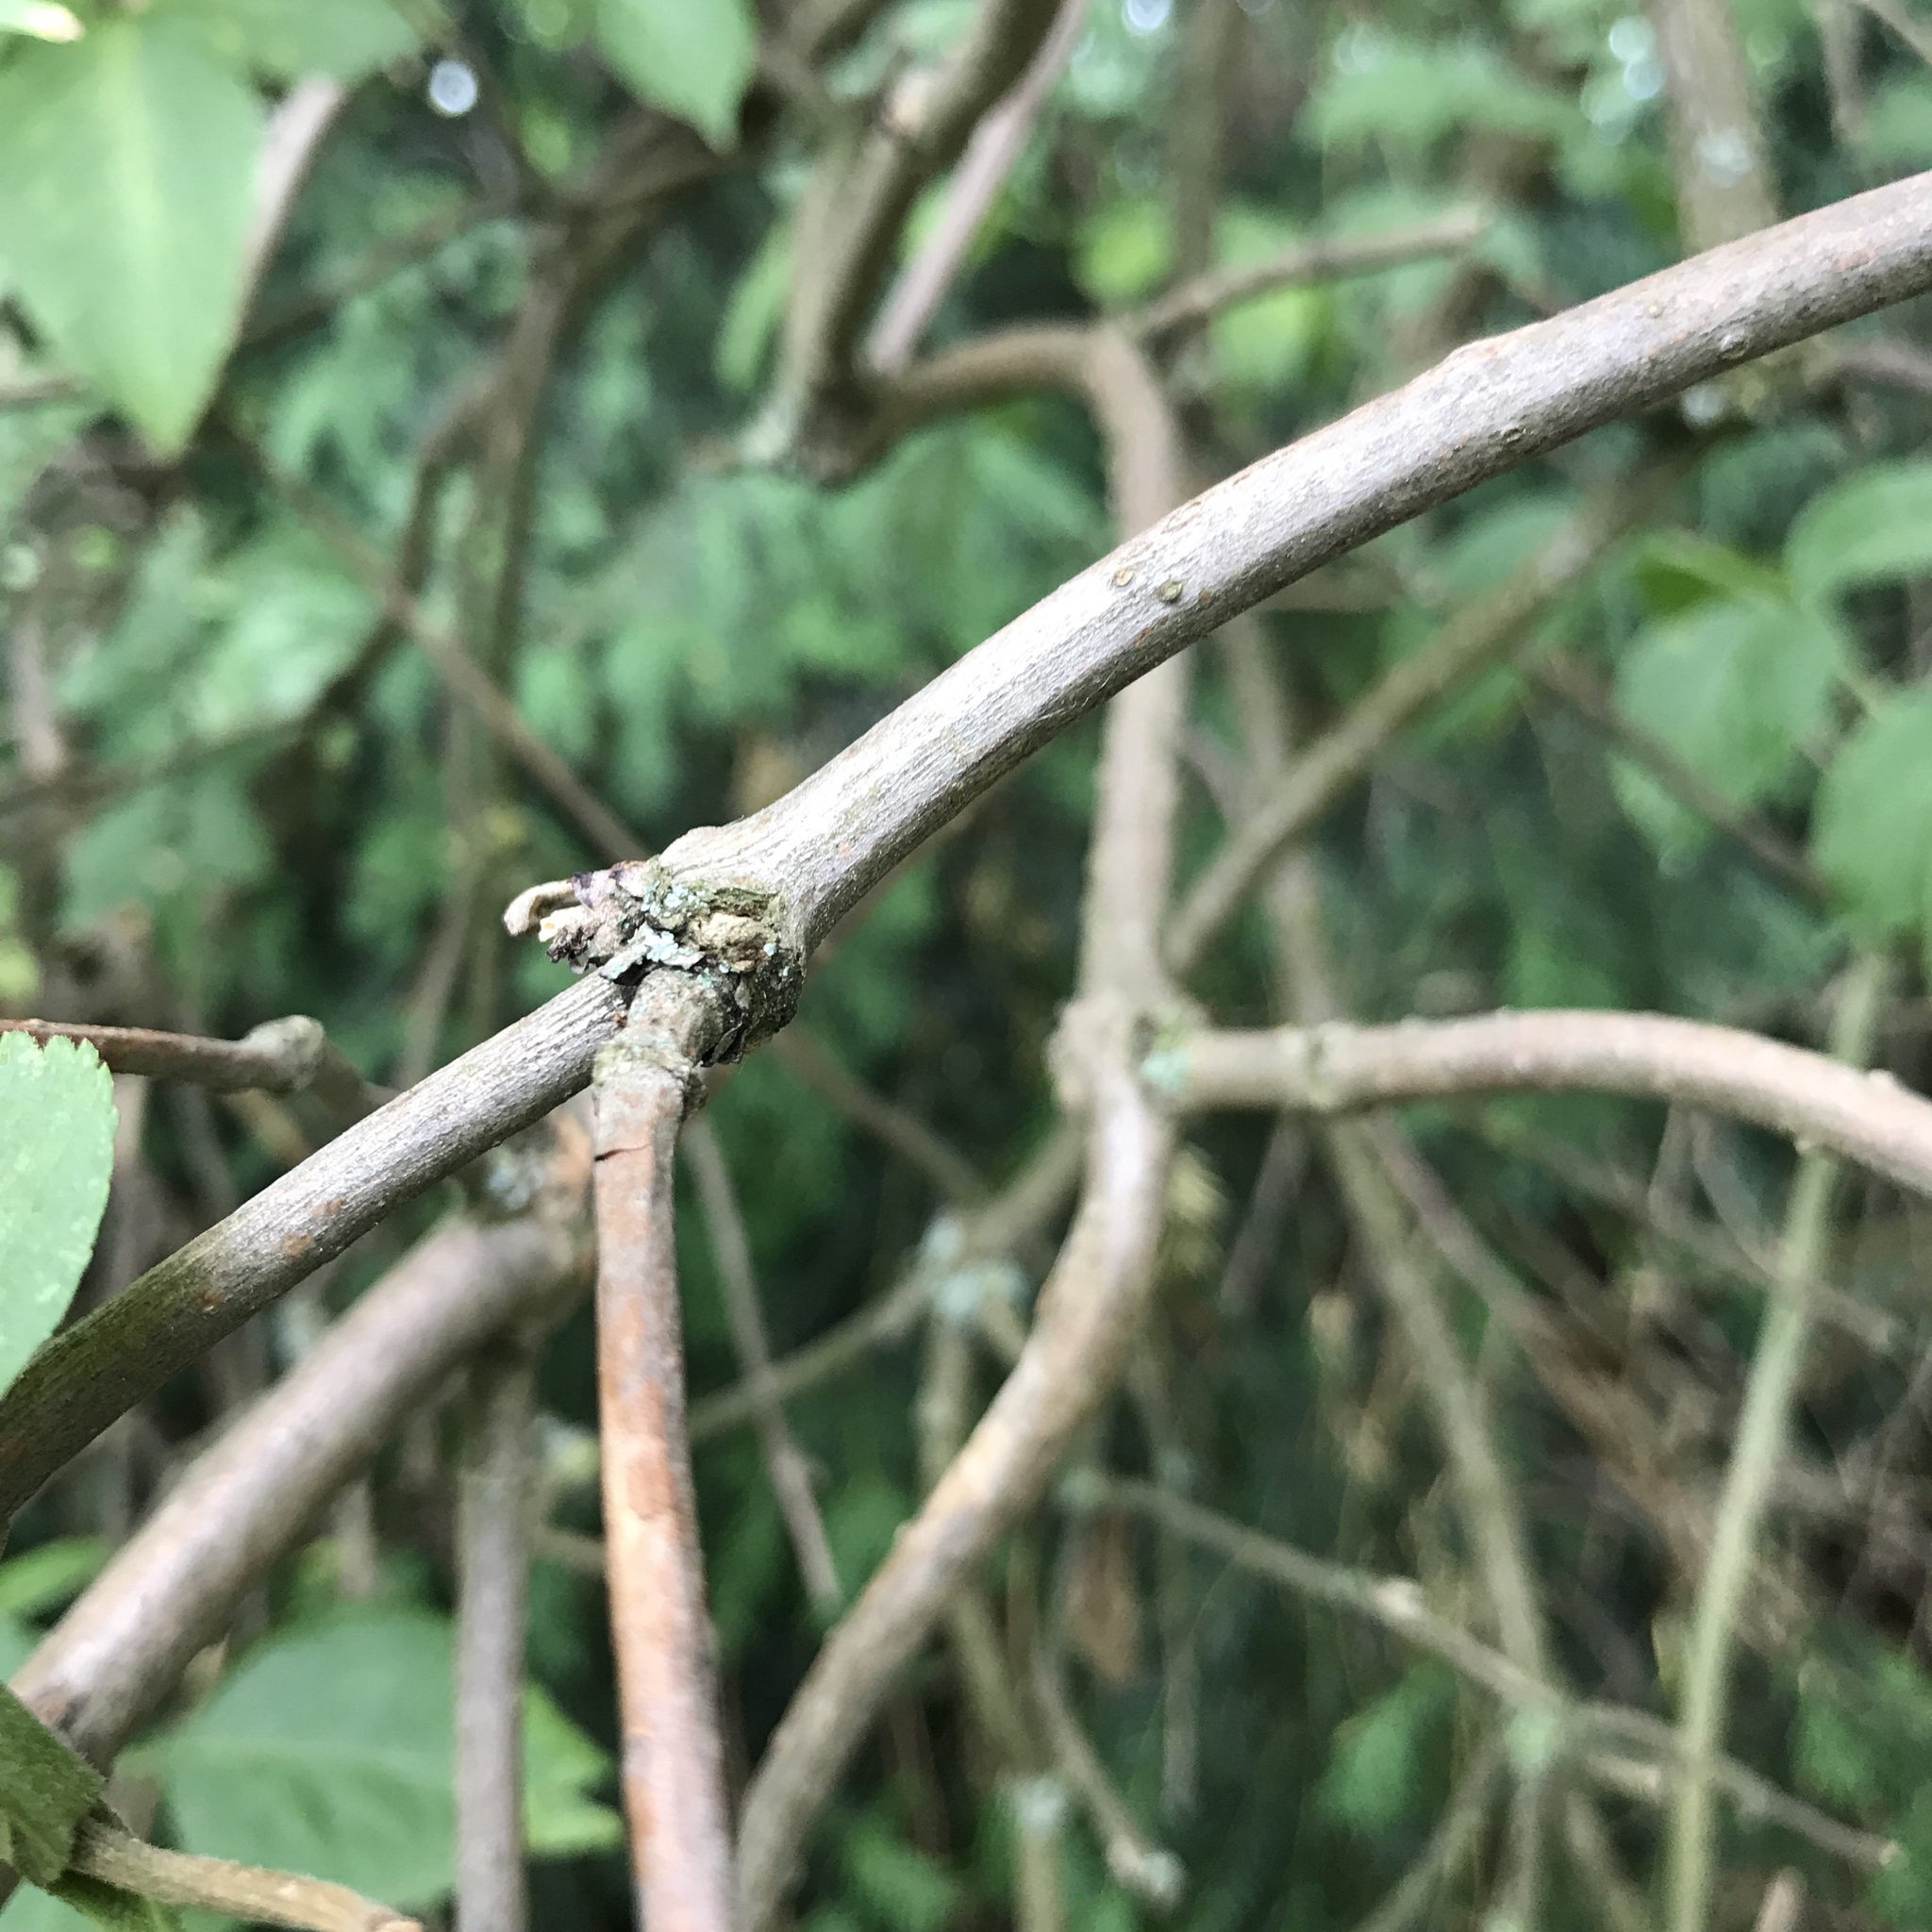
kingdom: Plantae
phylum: Tracheophyta
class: Magnoliopsida
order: Dipsacales
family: Viburnaceae
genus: Sambucus
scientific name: Sambucus nigra
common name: Elder
